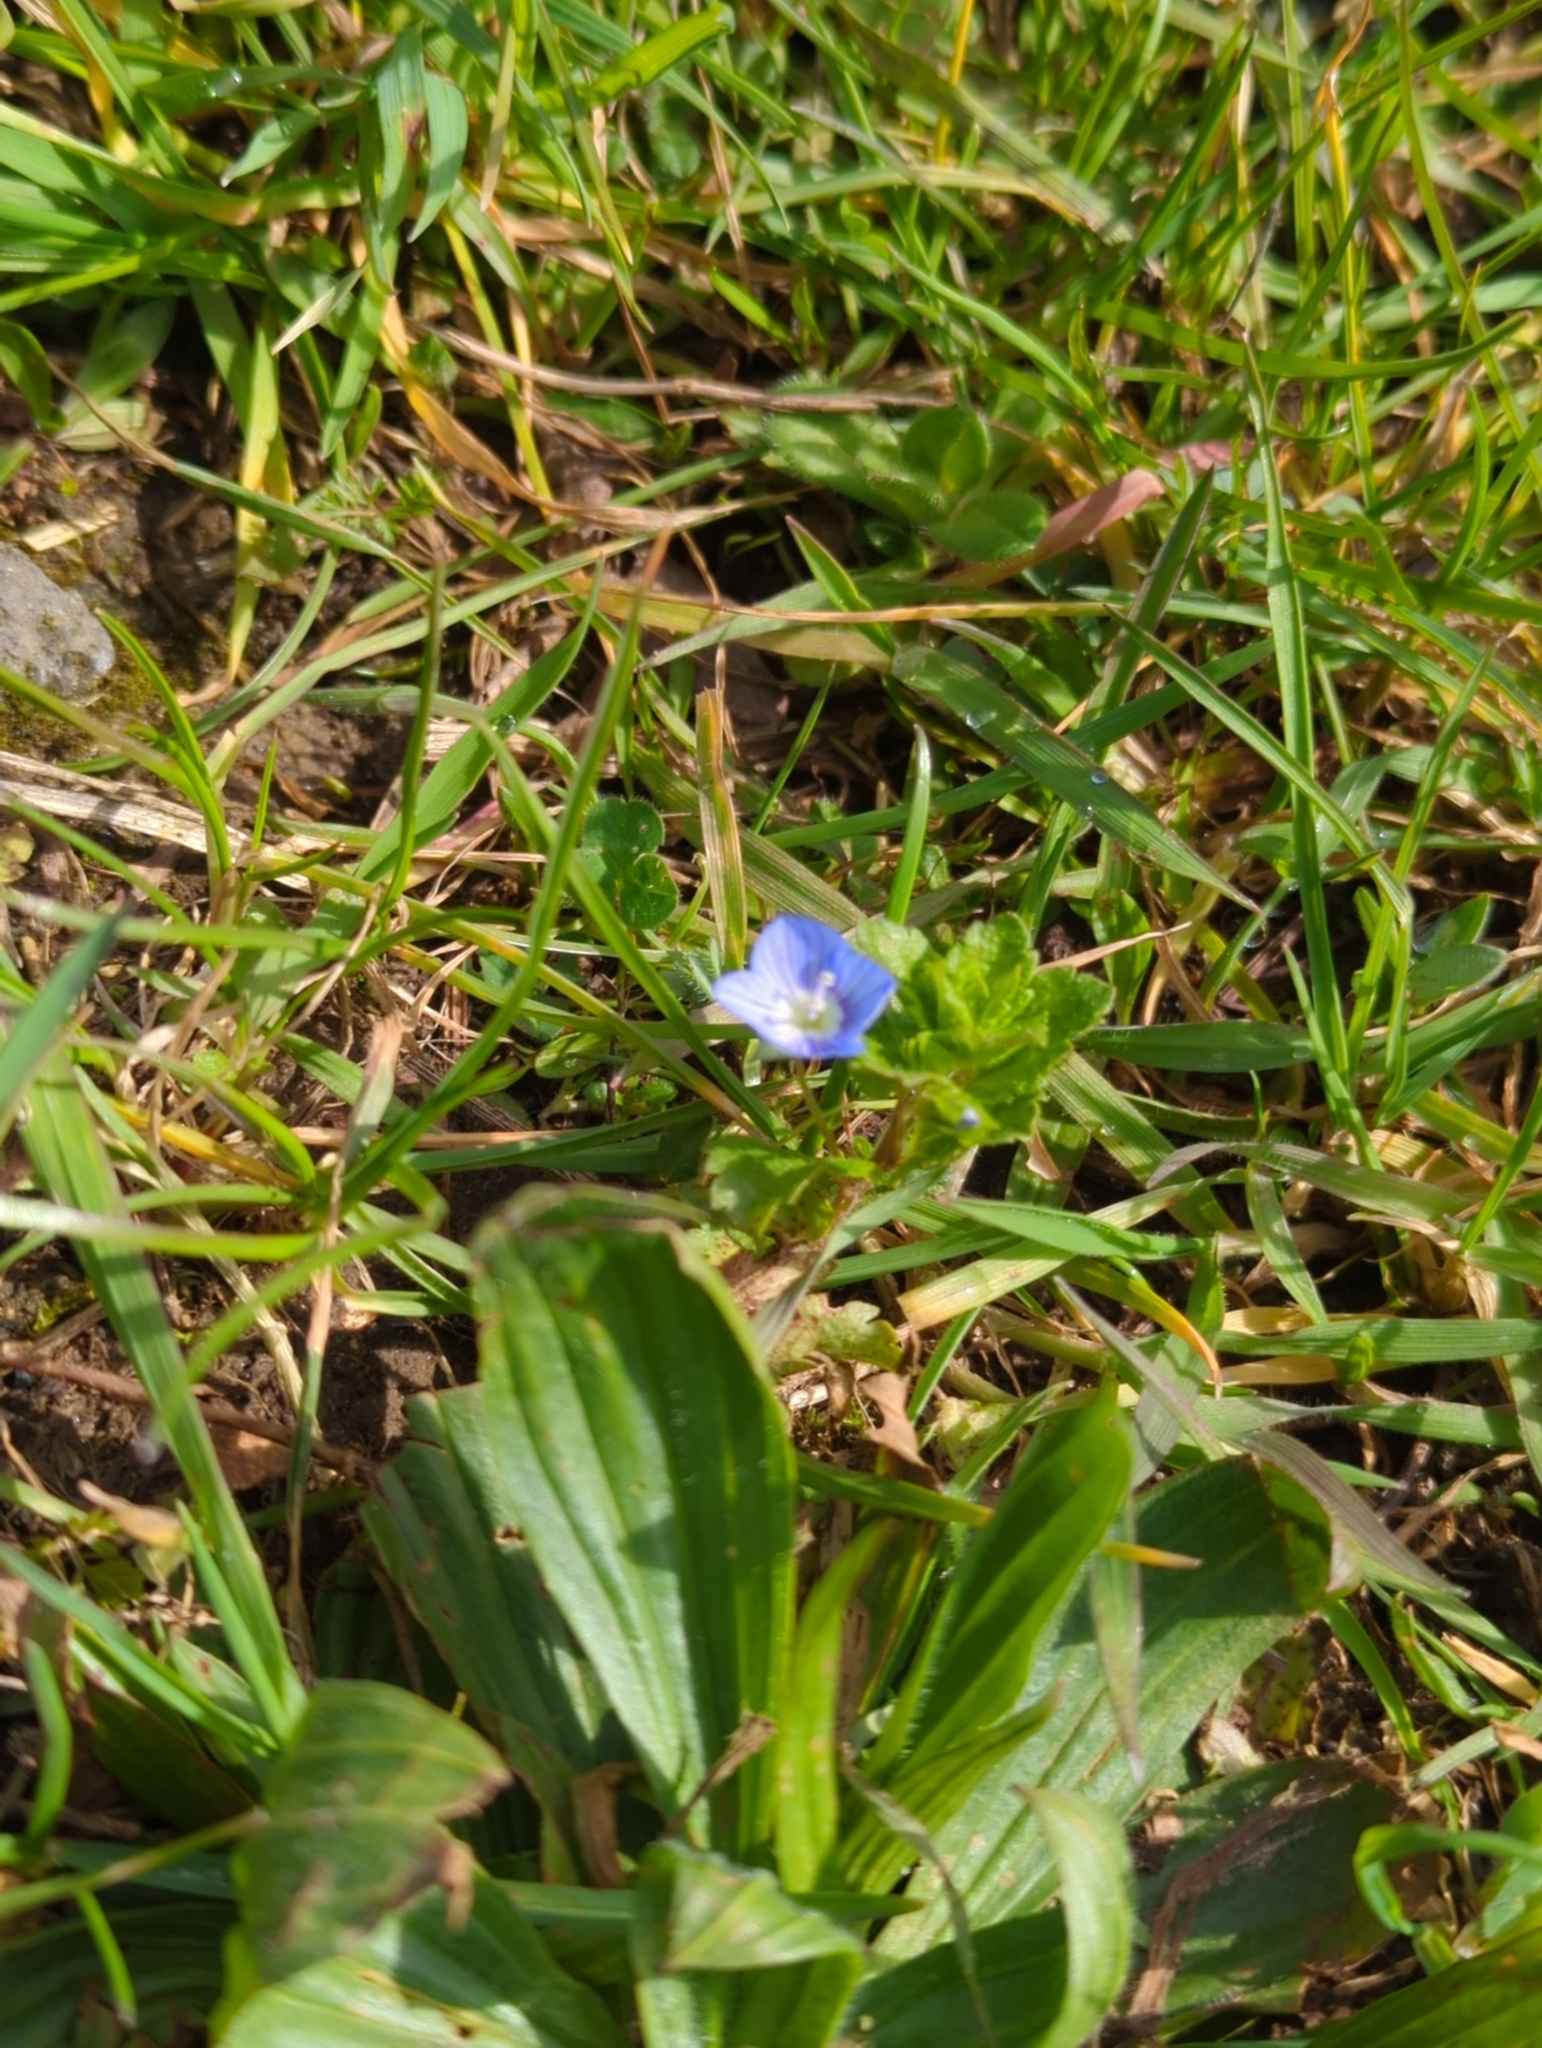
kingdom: Plantae
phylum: Tracheophyta
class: Magnoliopsida
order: Lamiales
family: Plantaginaceae
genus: Veronica
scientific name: Veronica persica
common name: Common field-speedwell
